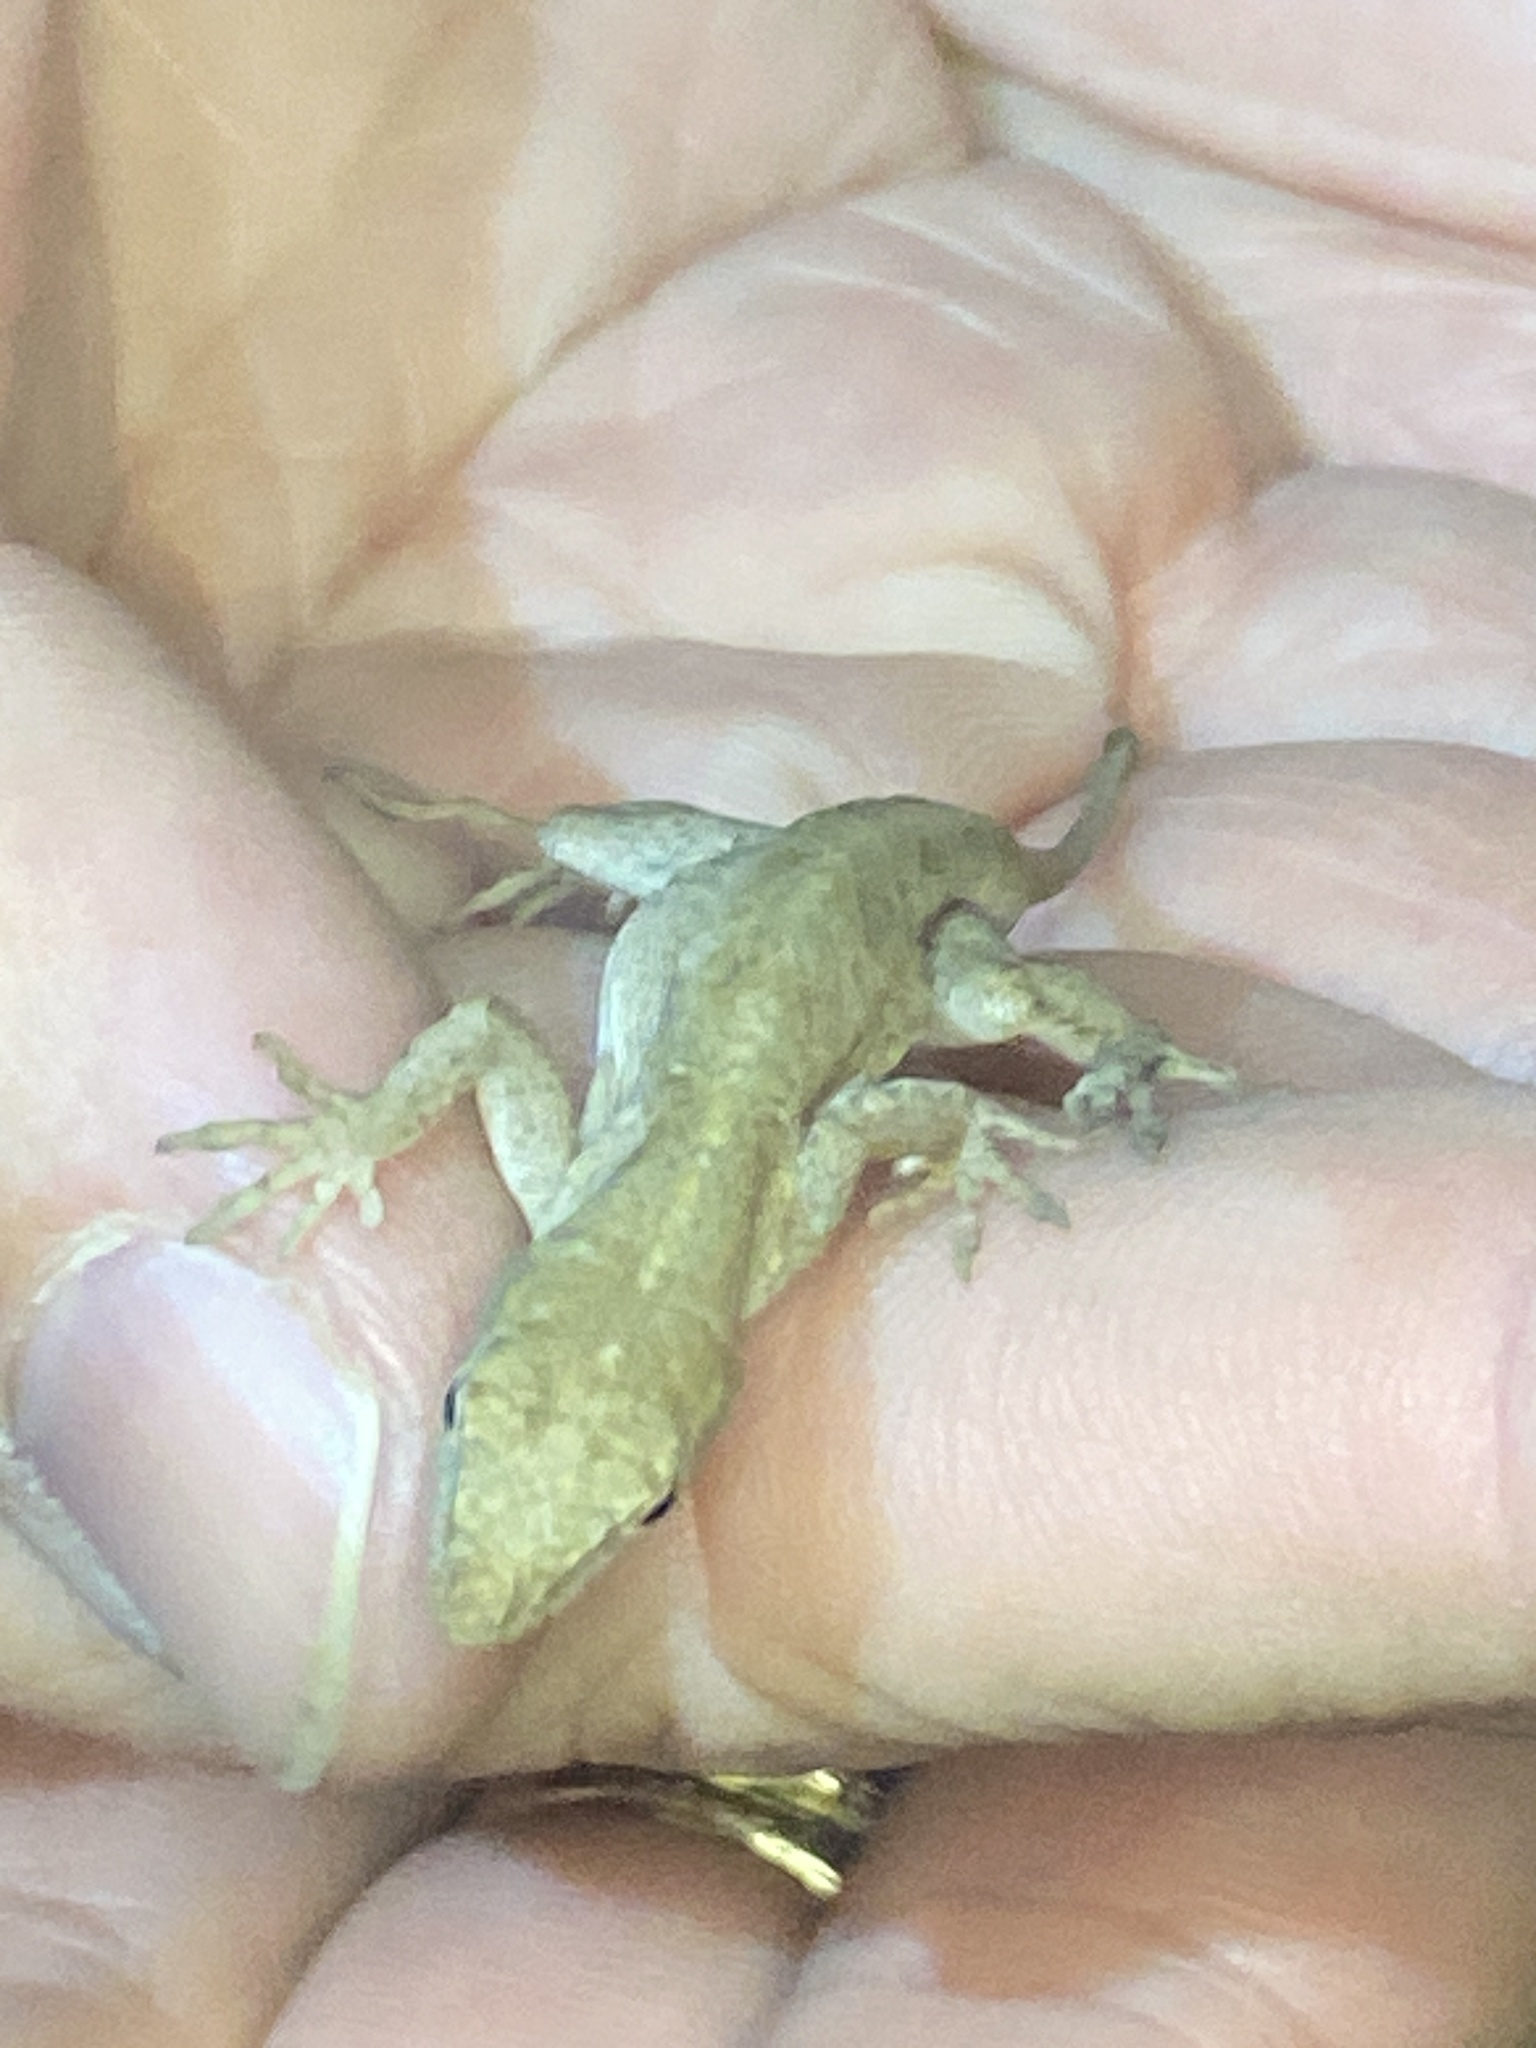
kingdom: Animalia
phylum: Chordata
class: Squamata
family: Dactyloidae
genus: Anolis
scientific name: Anolis sagrei
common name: Brown anole
